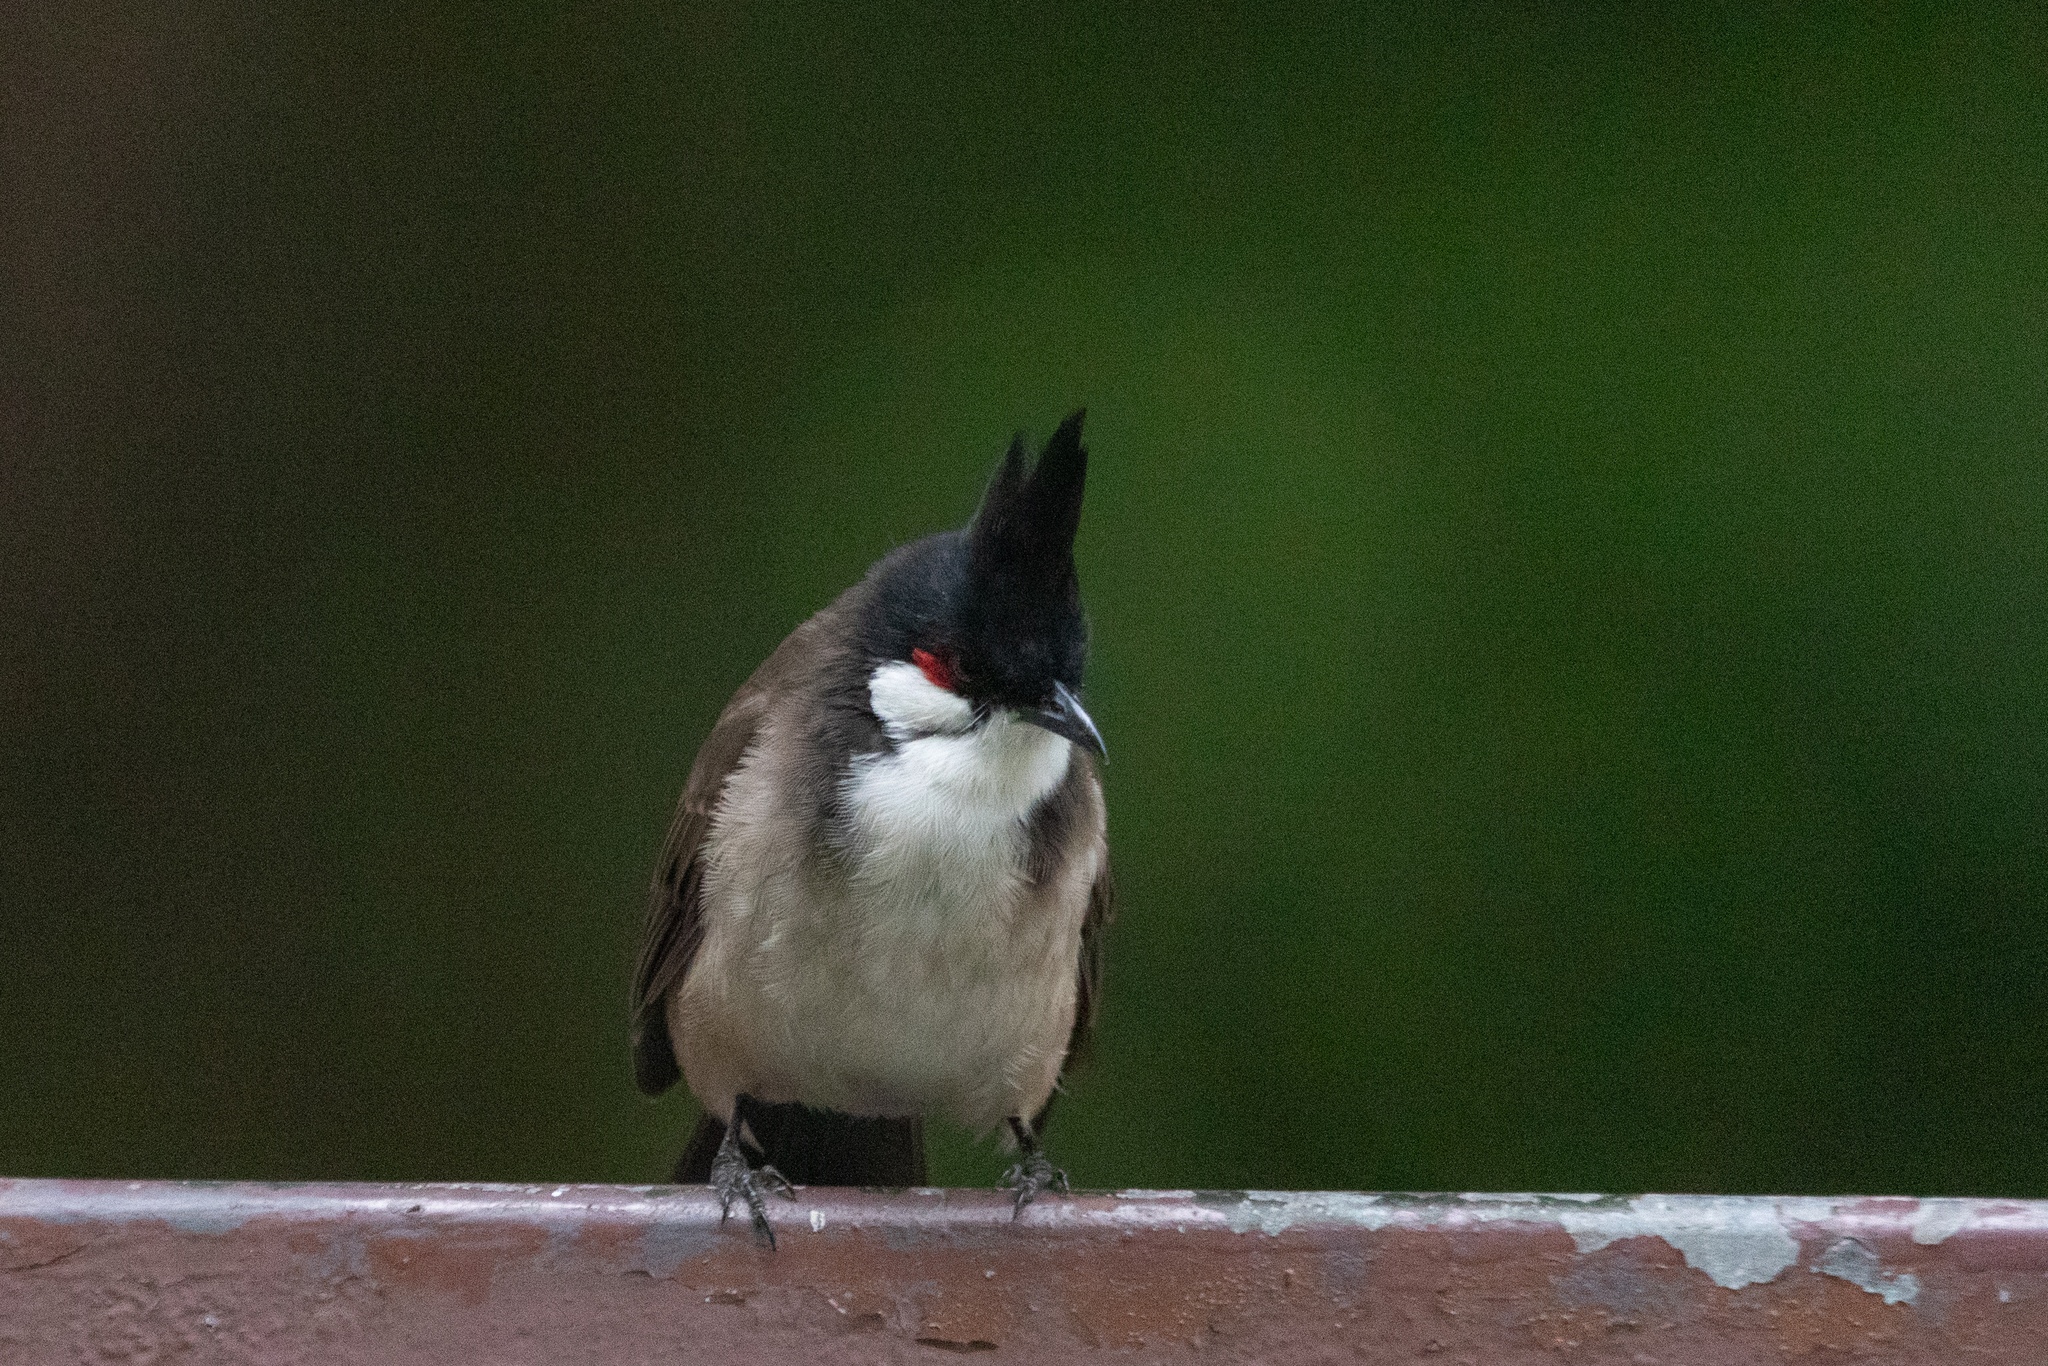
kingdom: Animalia
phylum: Chordata
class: Aves
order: Passeriformes
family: Pycnonotidae
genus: Pycnonotus
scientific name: Pycnonotus jocosus
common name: Red-whiskered bulbul
